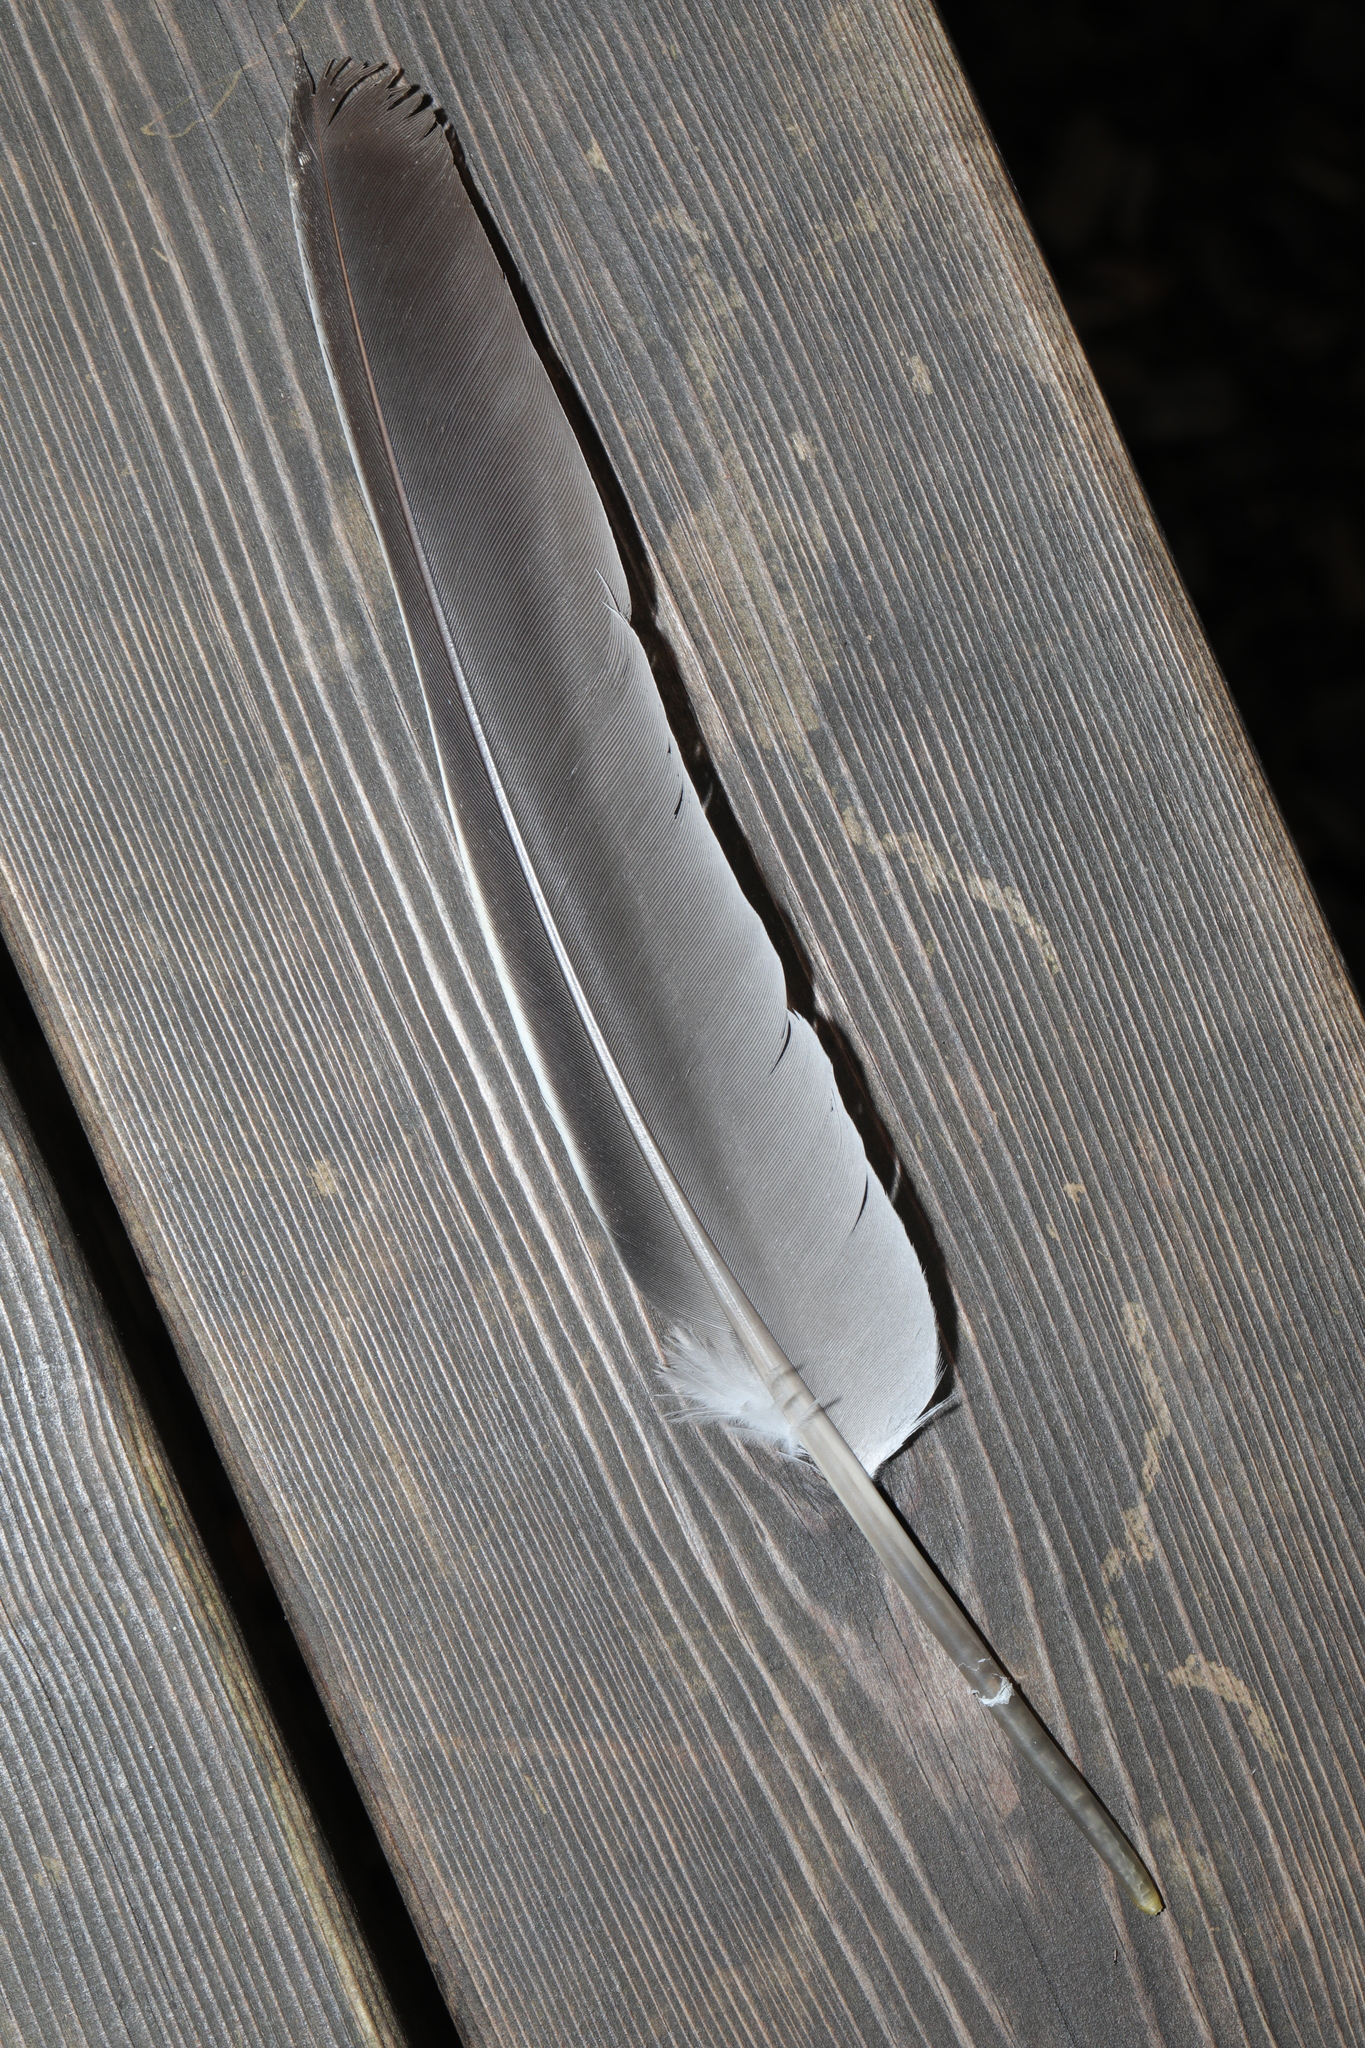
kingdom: Animalia
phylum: Chordata
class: Aves
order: Columbiformes
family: Columbidae
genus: Columba
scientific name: Columba palumbus
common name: Common wood pigeon
